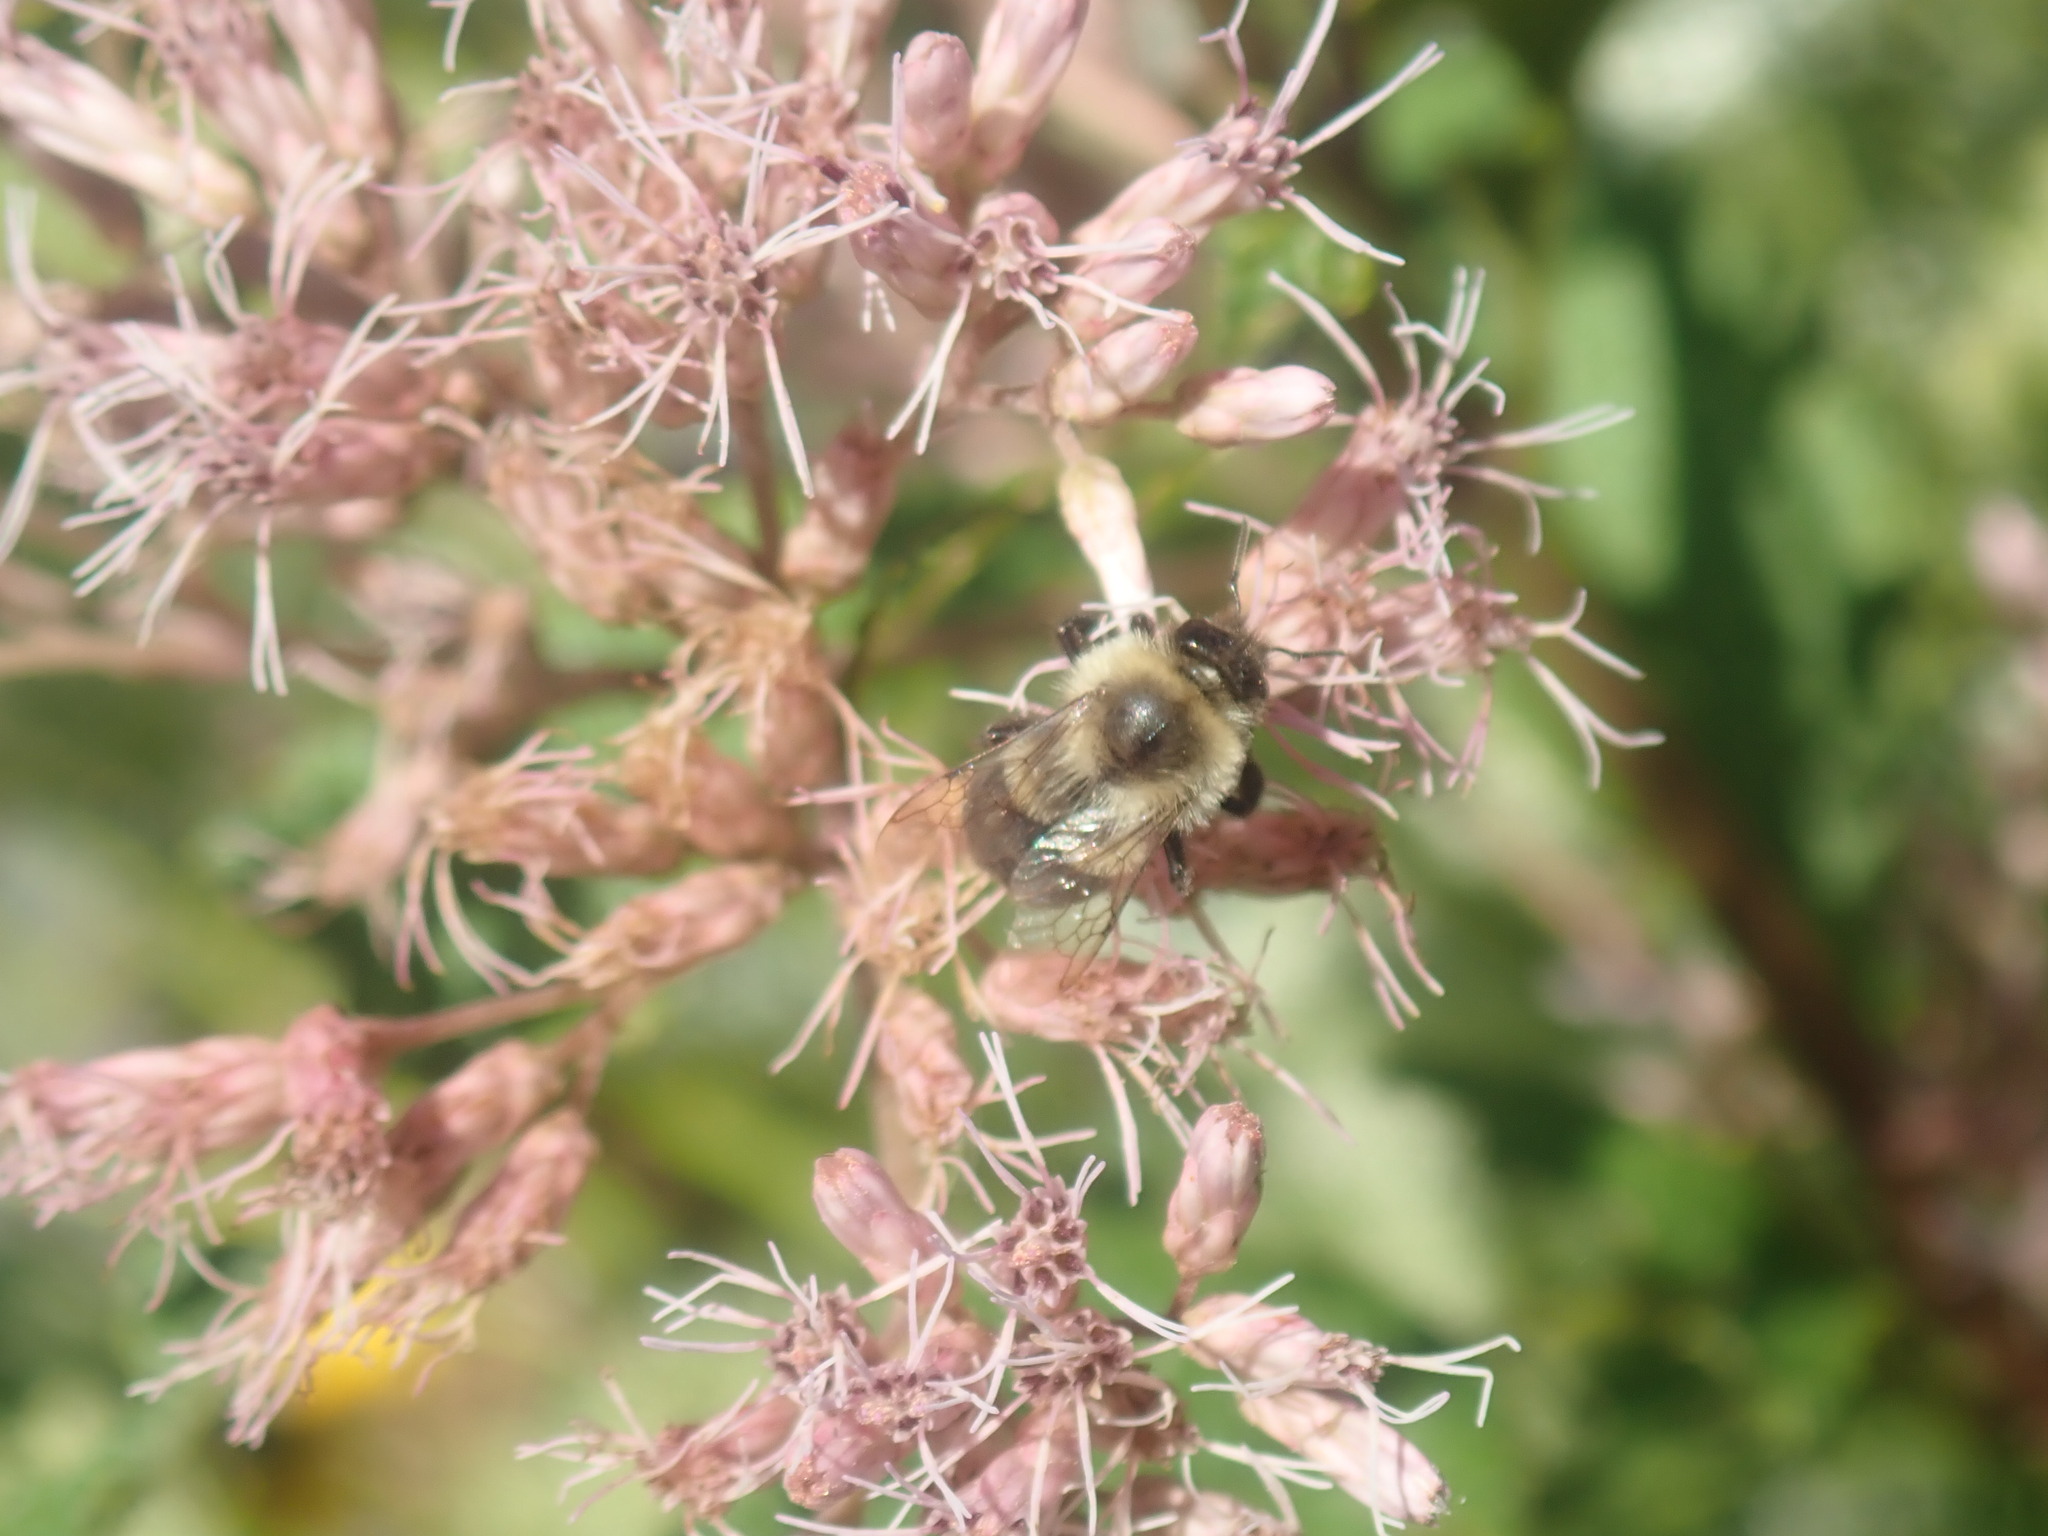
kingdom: Animalia
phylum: Arthropoda
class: Insecta
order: Hymenoptera
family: Apidae
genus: Bombus
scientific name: Bombus impatiens
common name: Common eastern bumble bee
